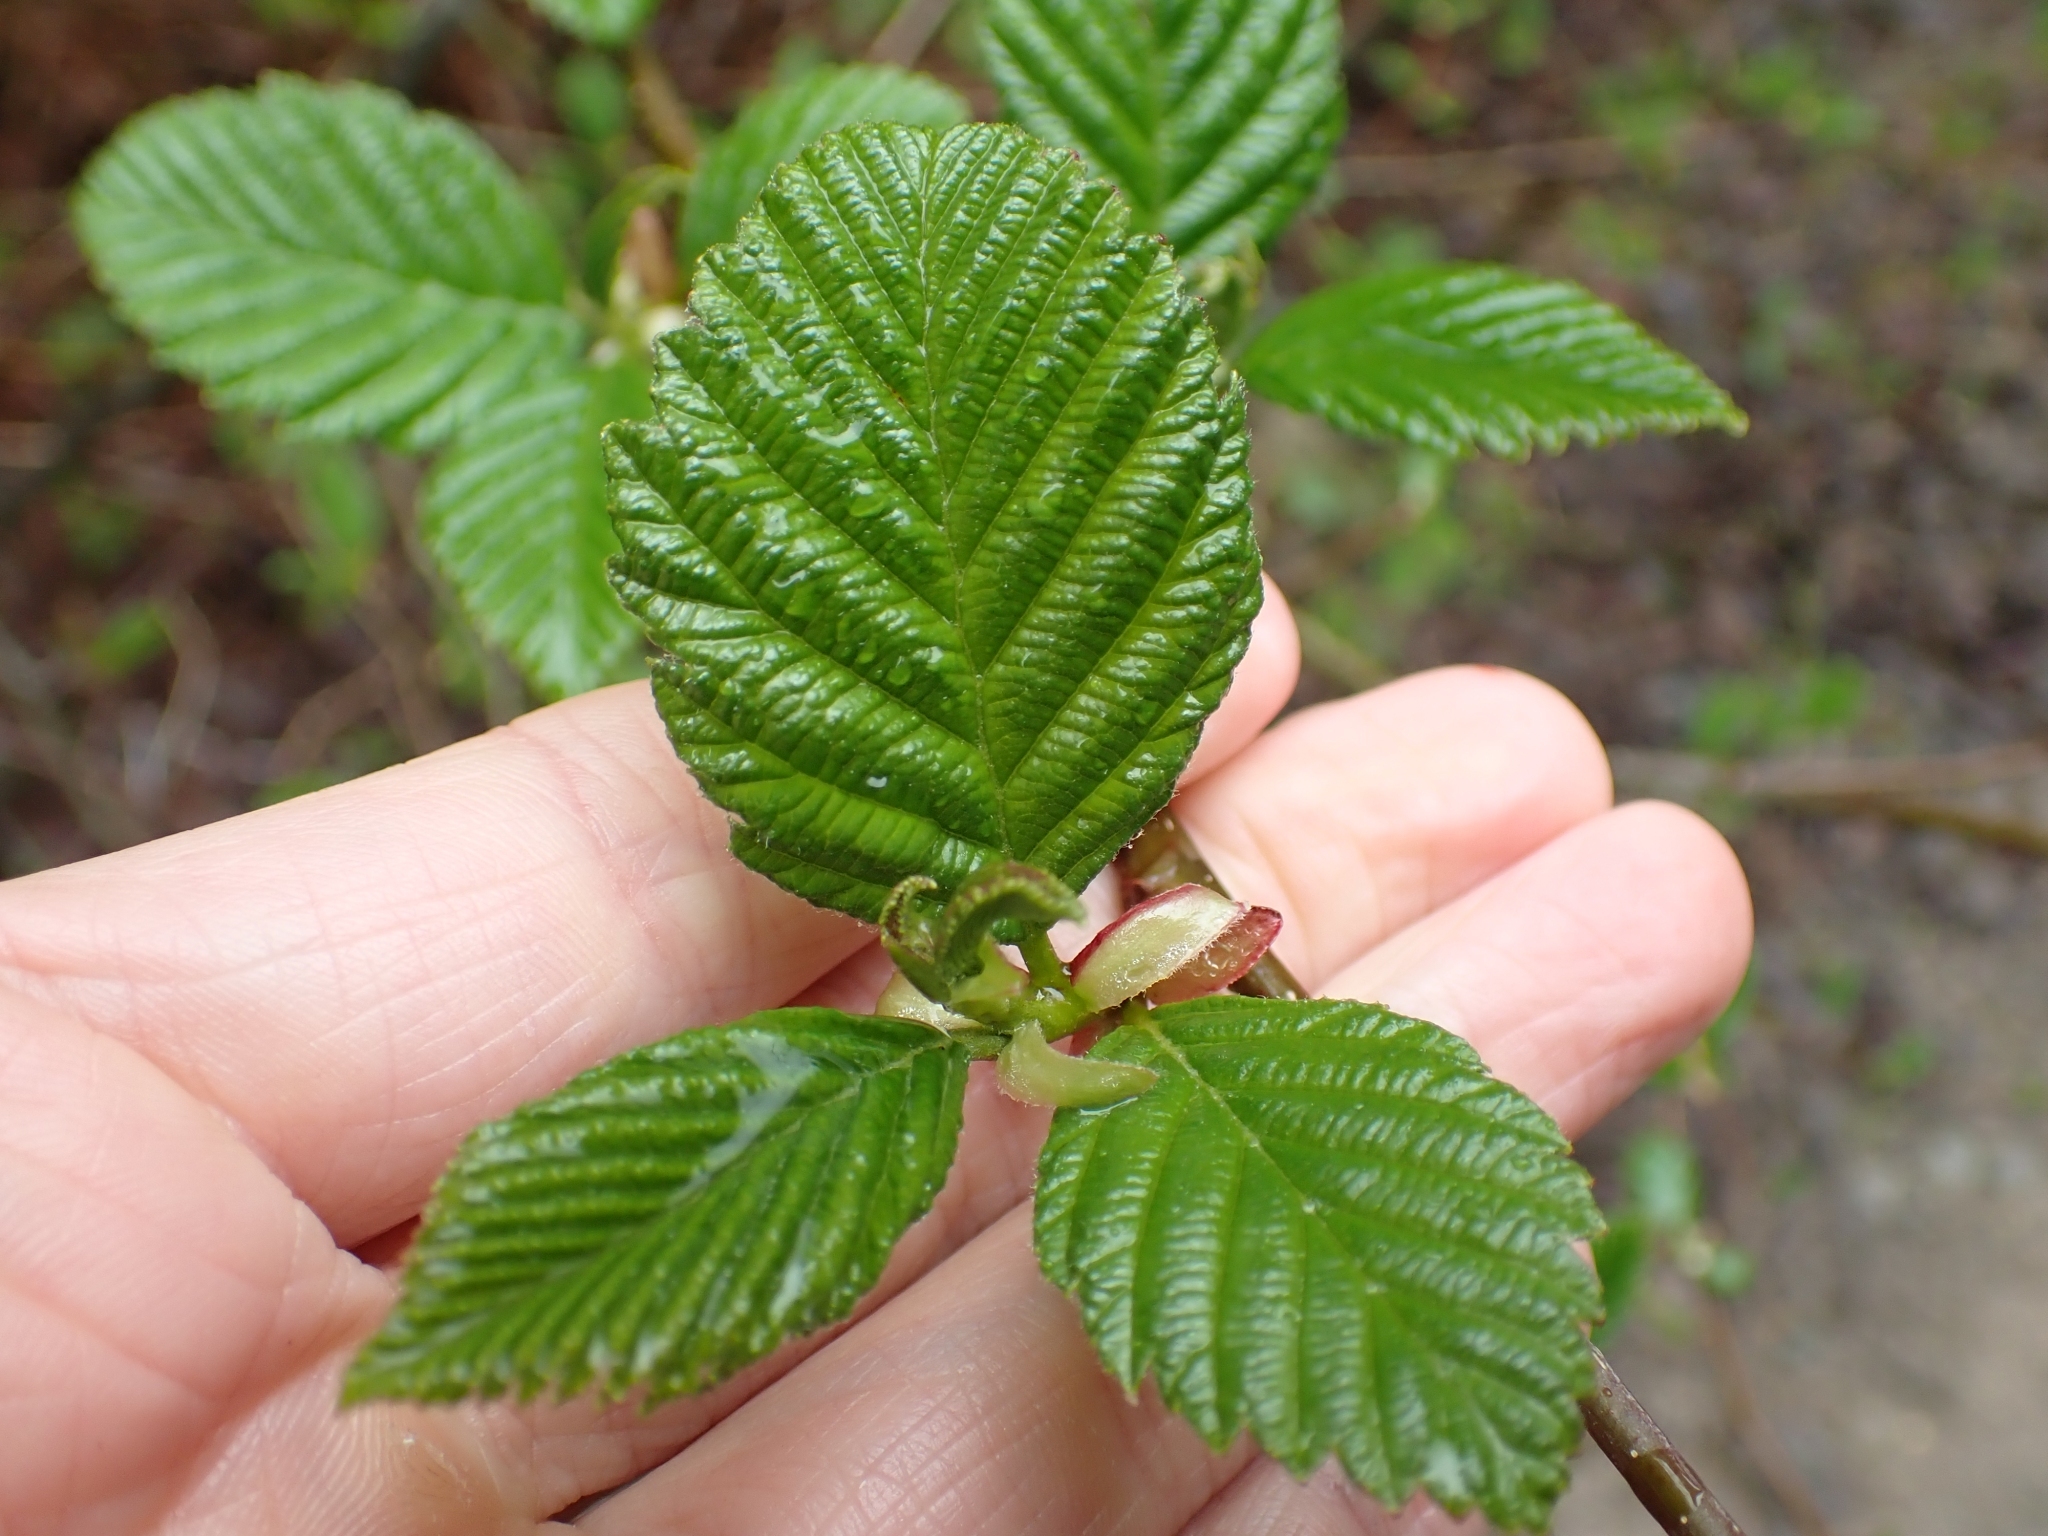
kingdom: Plantae
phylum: Tracheophyta
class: Magnoliopsida
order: Fagales
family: Betulaceae
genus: Alnus
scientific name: Alnus rubra
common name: Red alder
